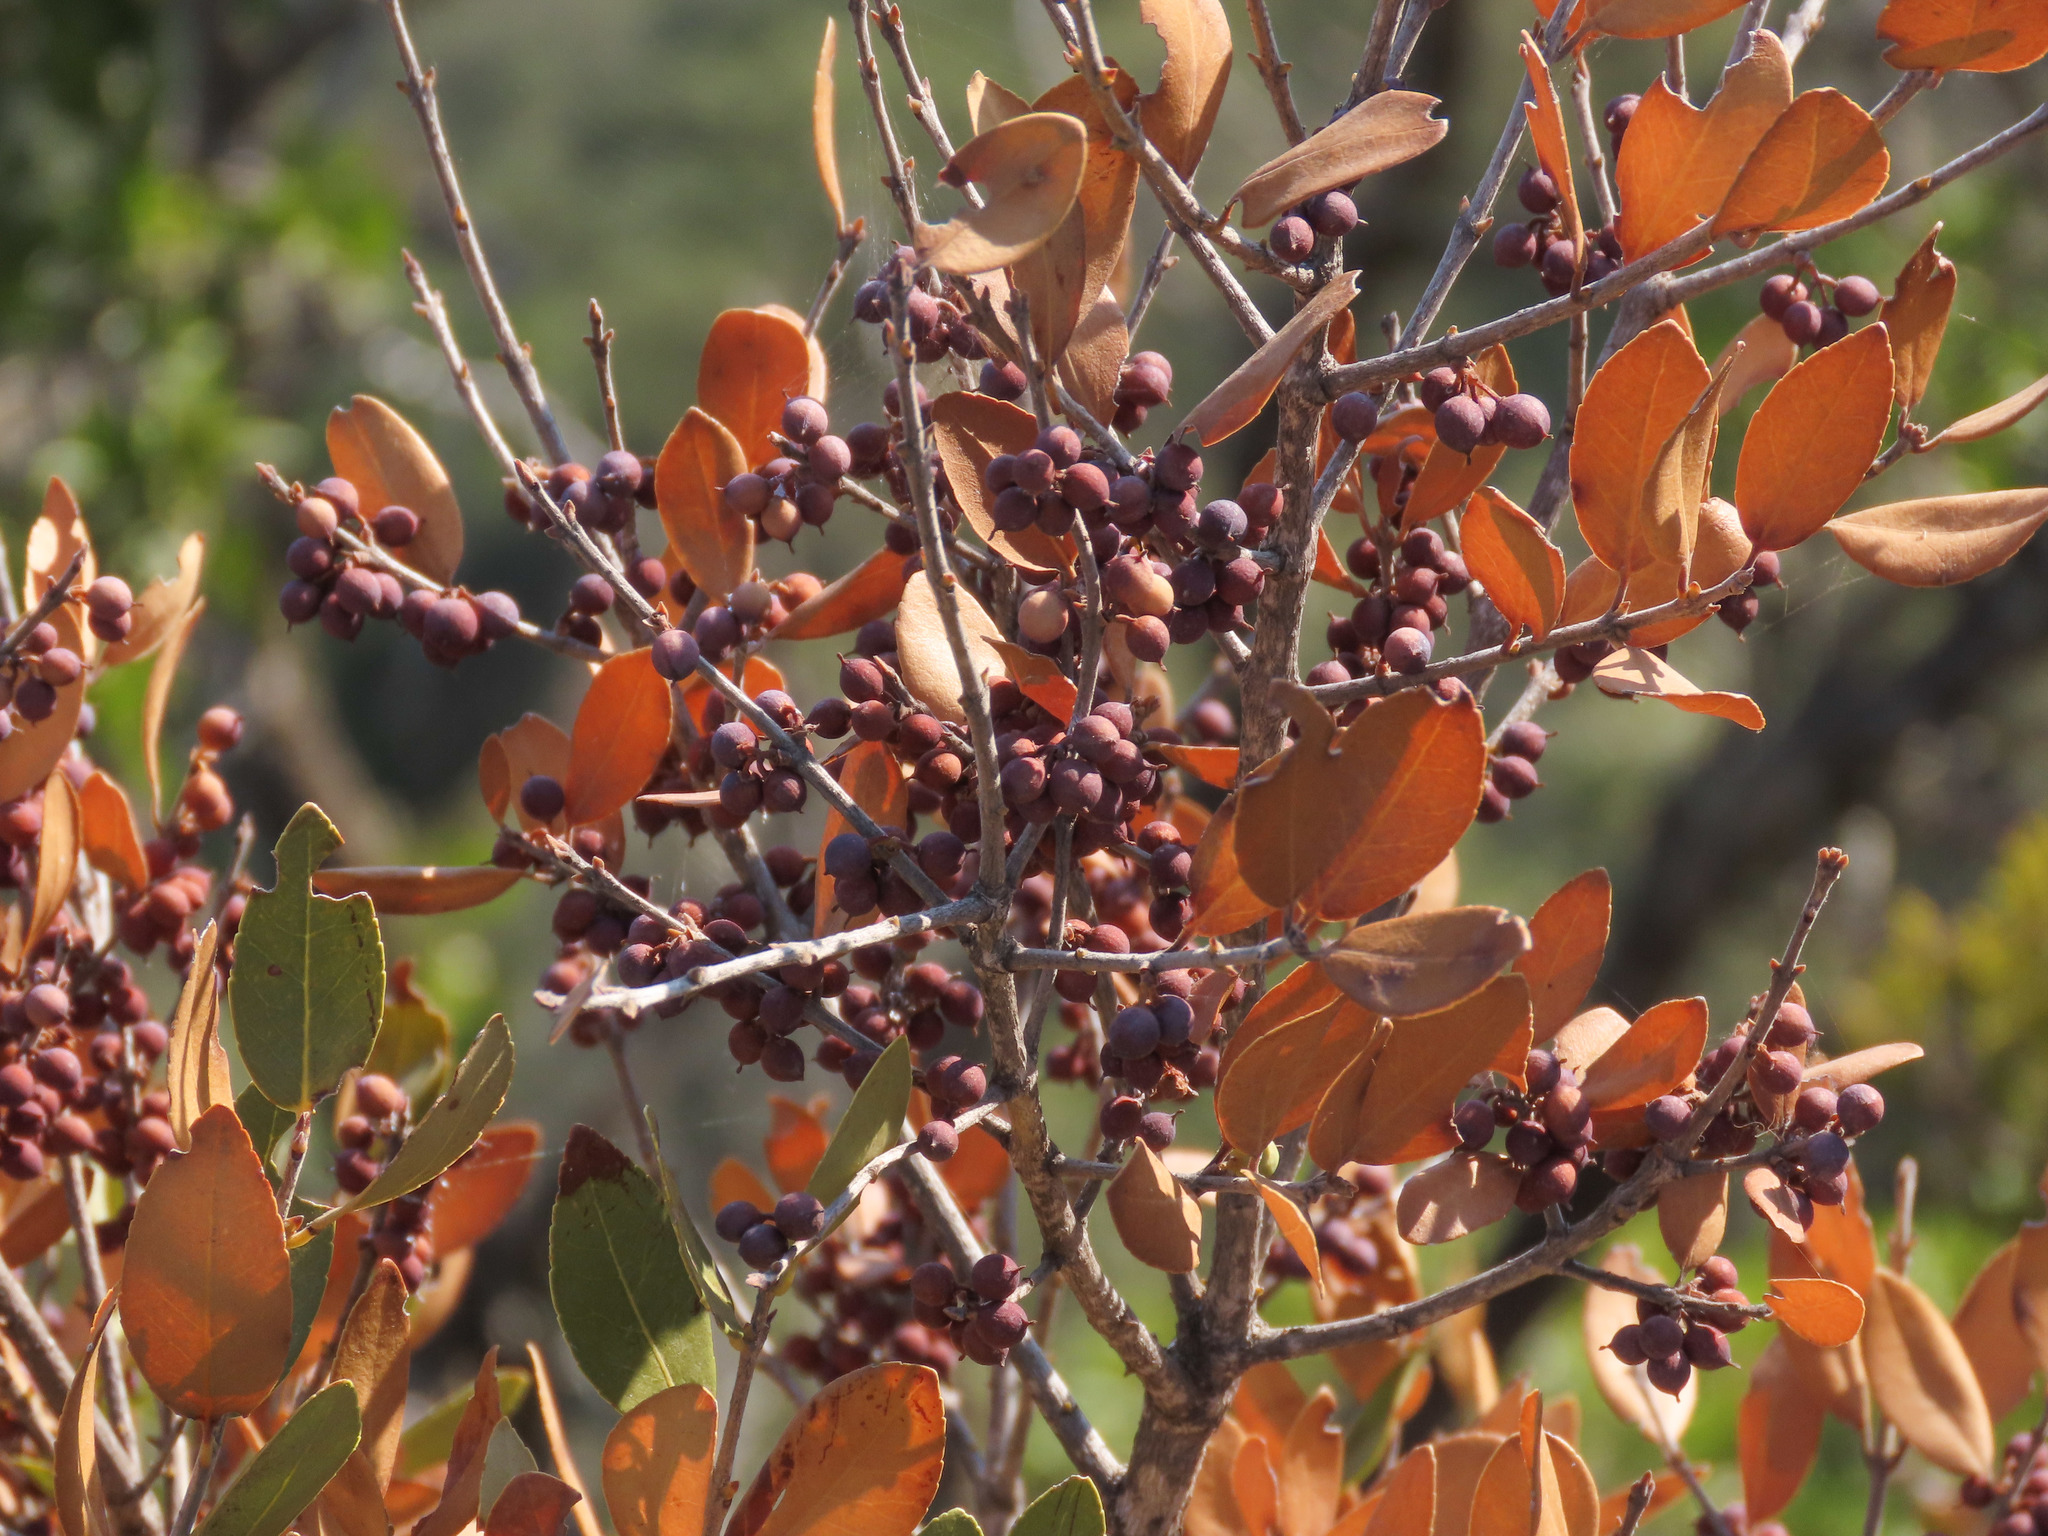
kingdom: Plantae
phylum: Tracheophyta
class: Magnoliopsida
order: Lamiales
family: Oleaceae
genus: Phillyrea
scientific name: Phillyrea latifolia
